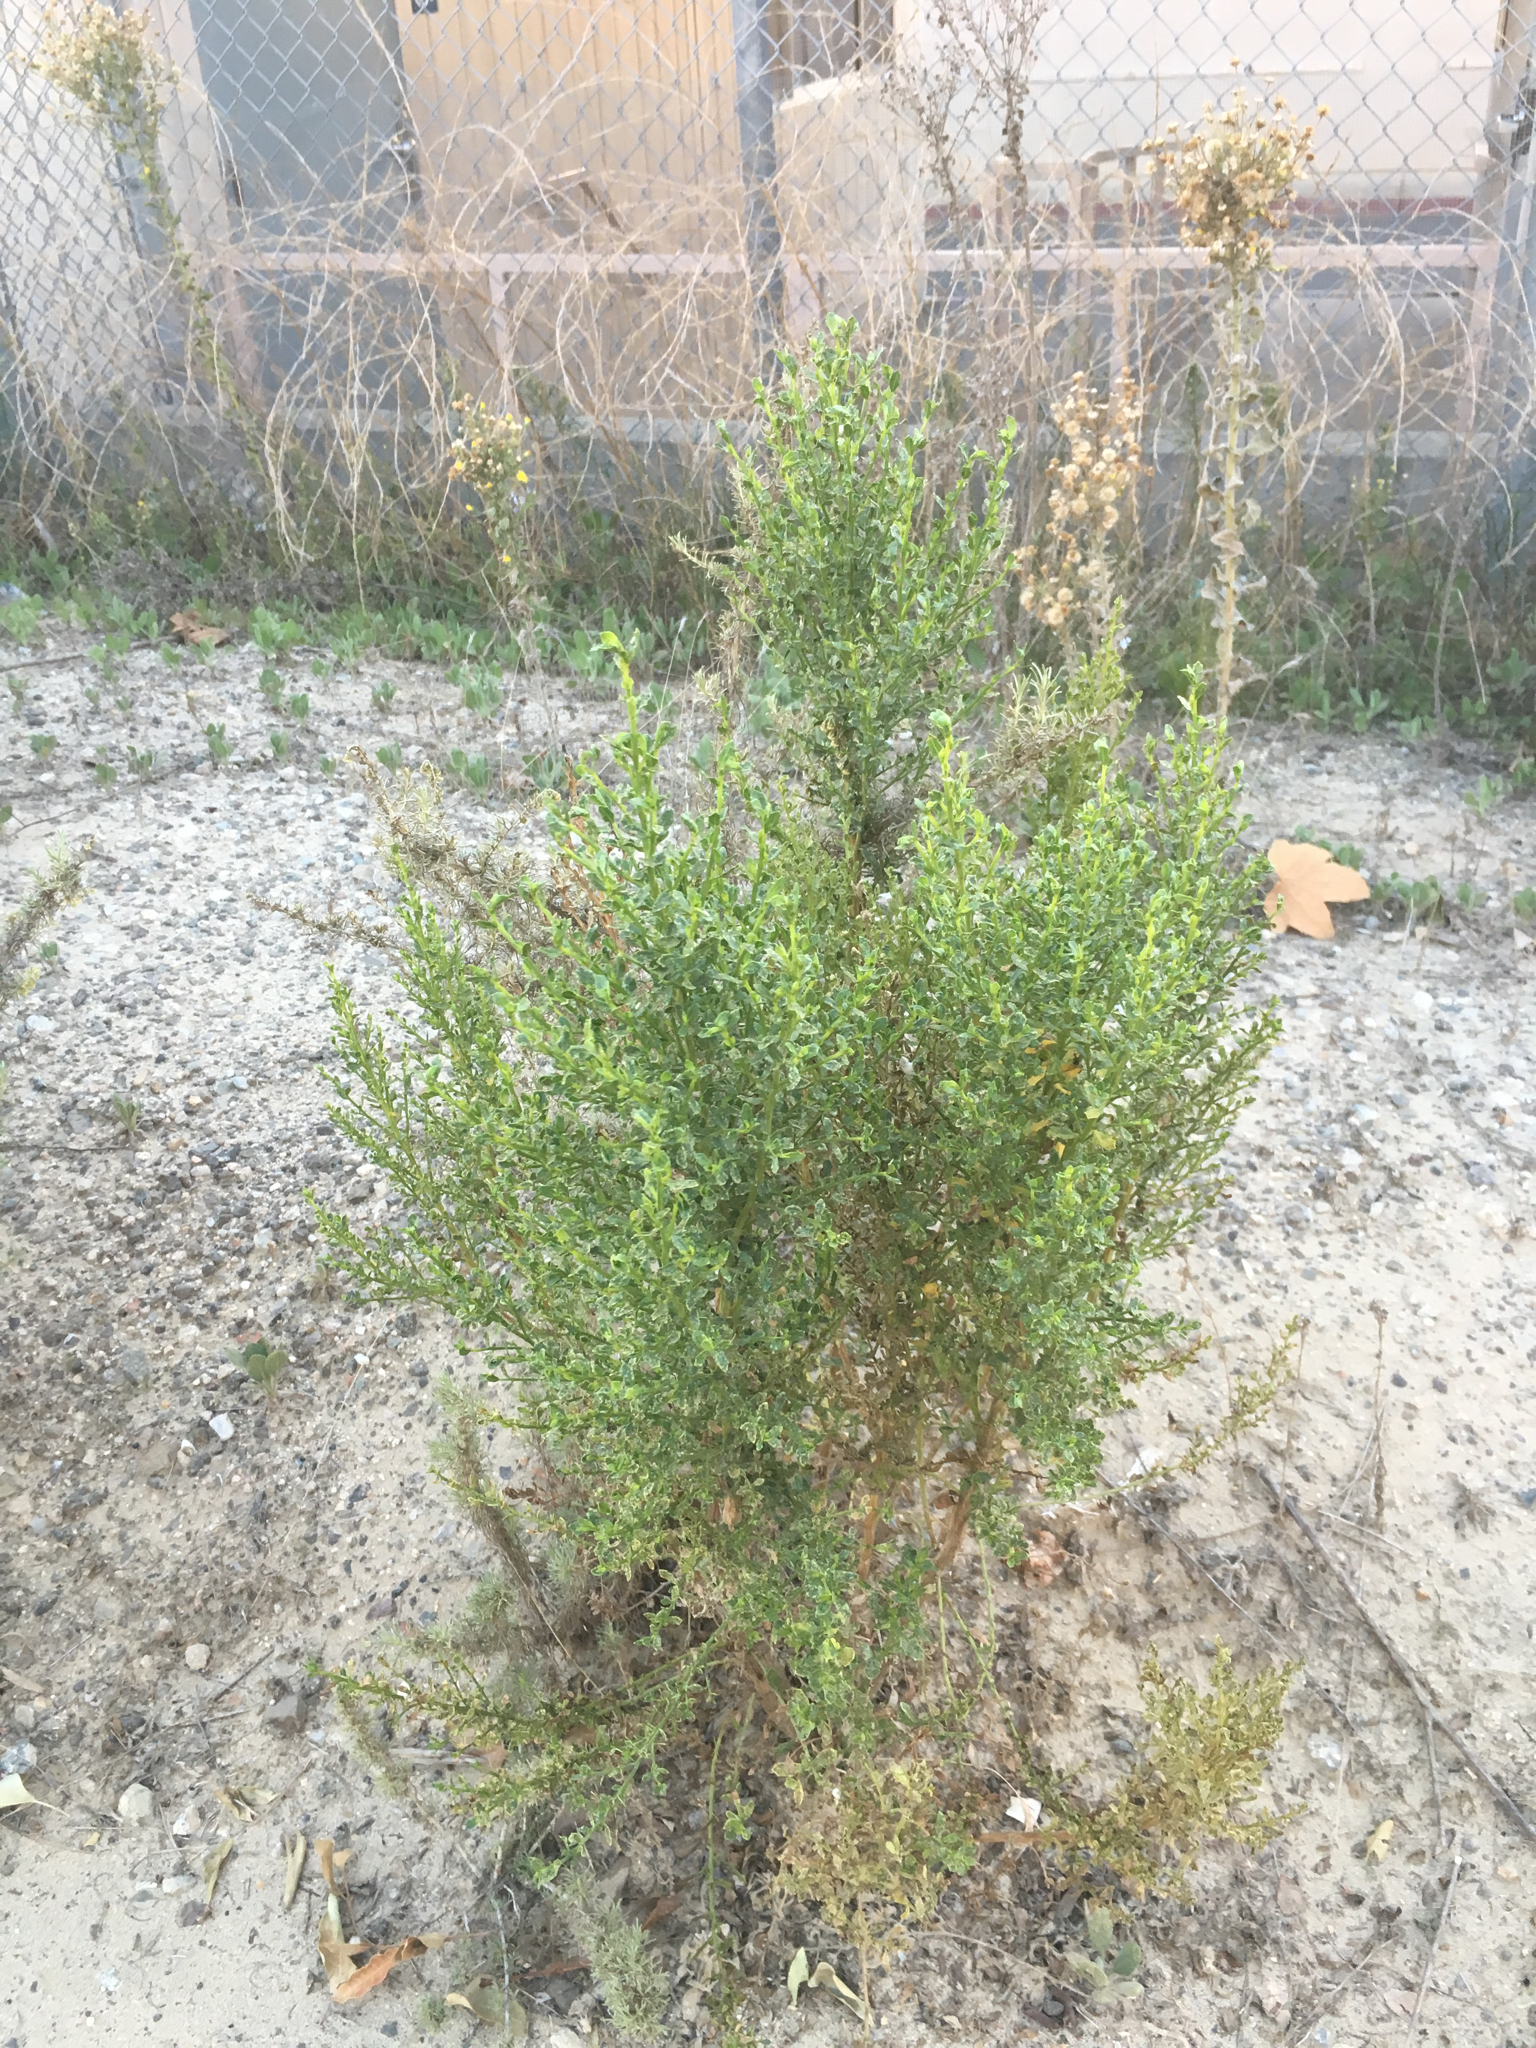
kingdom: Plantae
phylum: Tracheophyta
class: Magnoliopsida
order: Asterales
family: Asteraceae
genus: Baccharis
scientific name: Baccharis pilularis
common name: Coyotebrush
